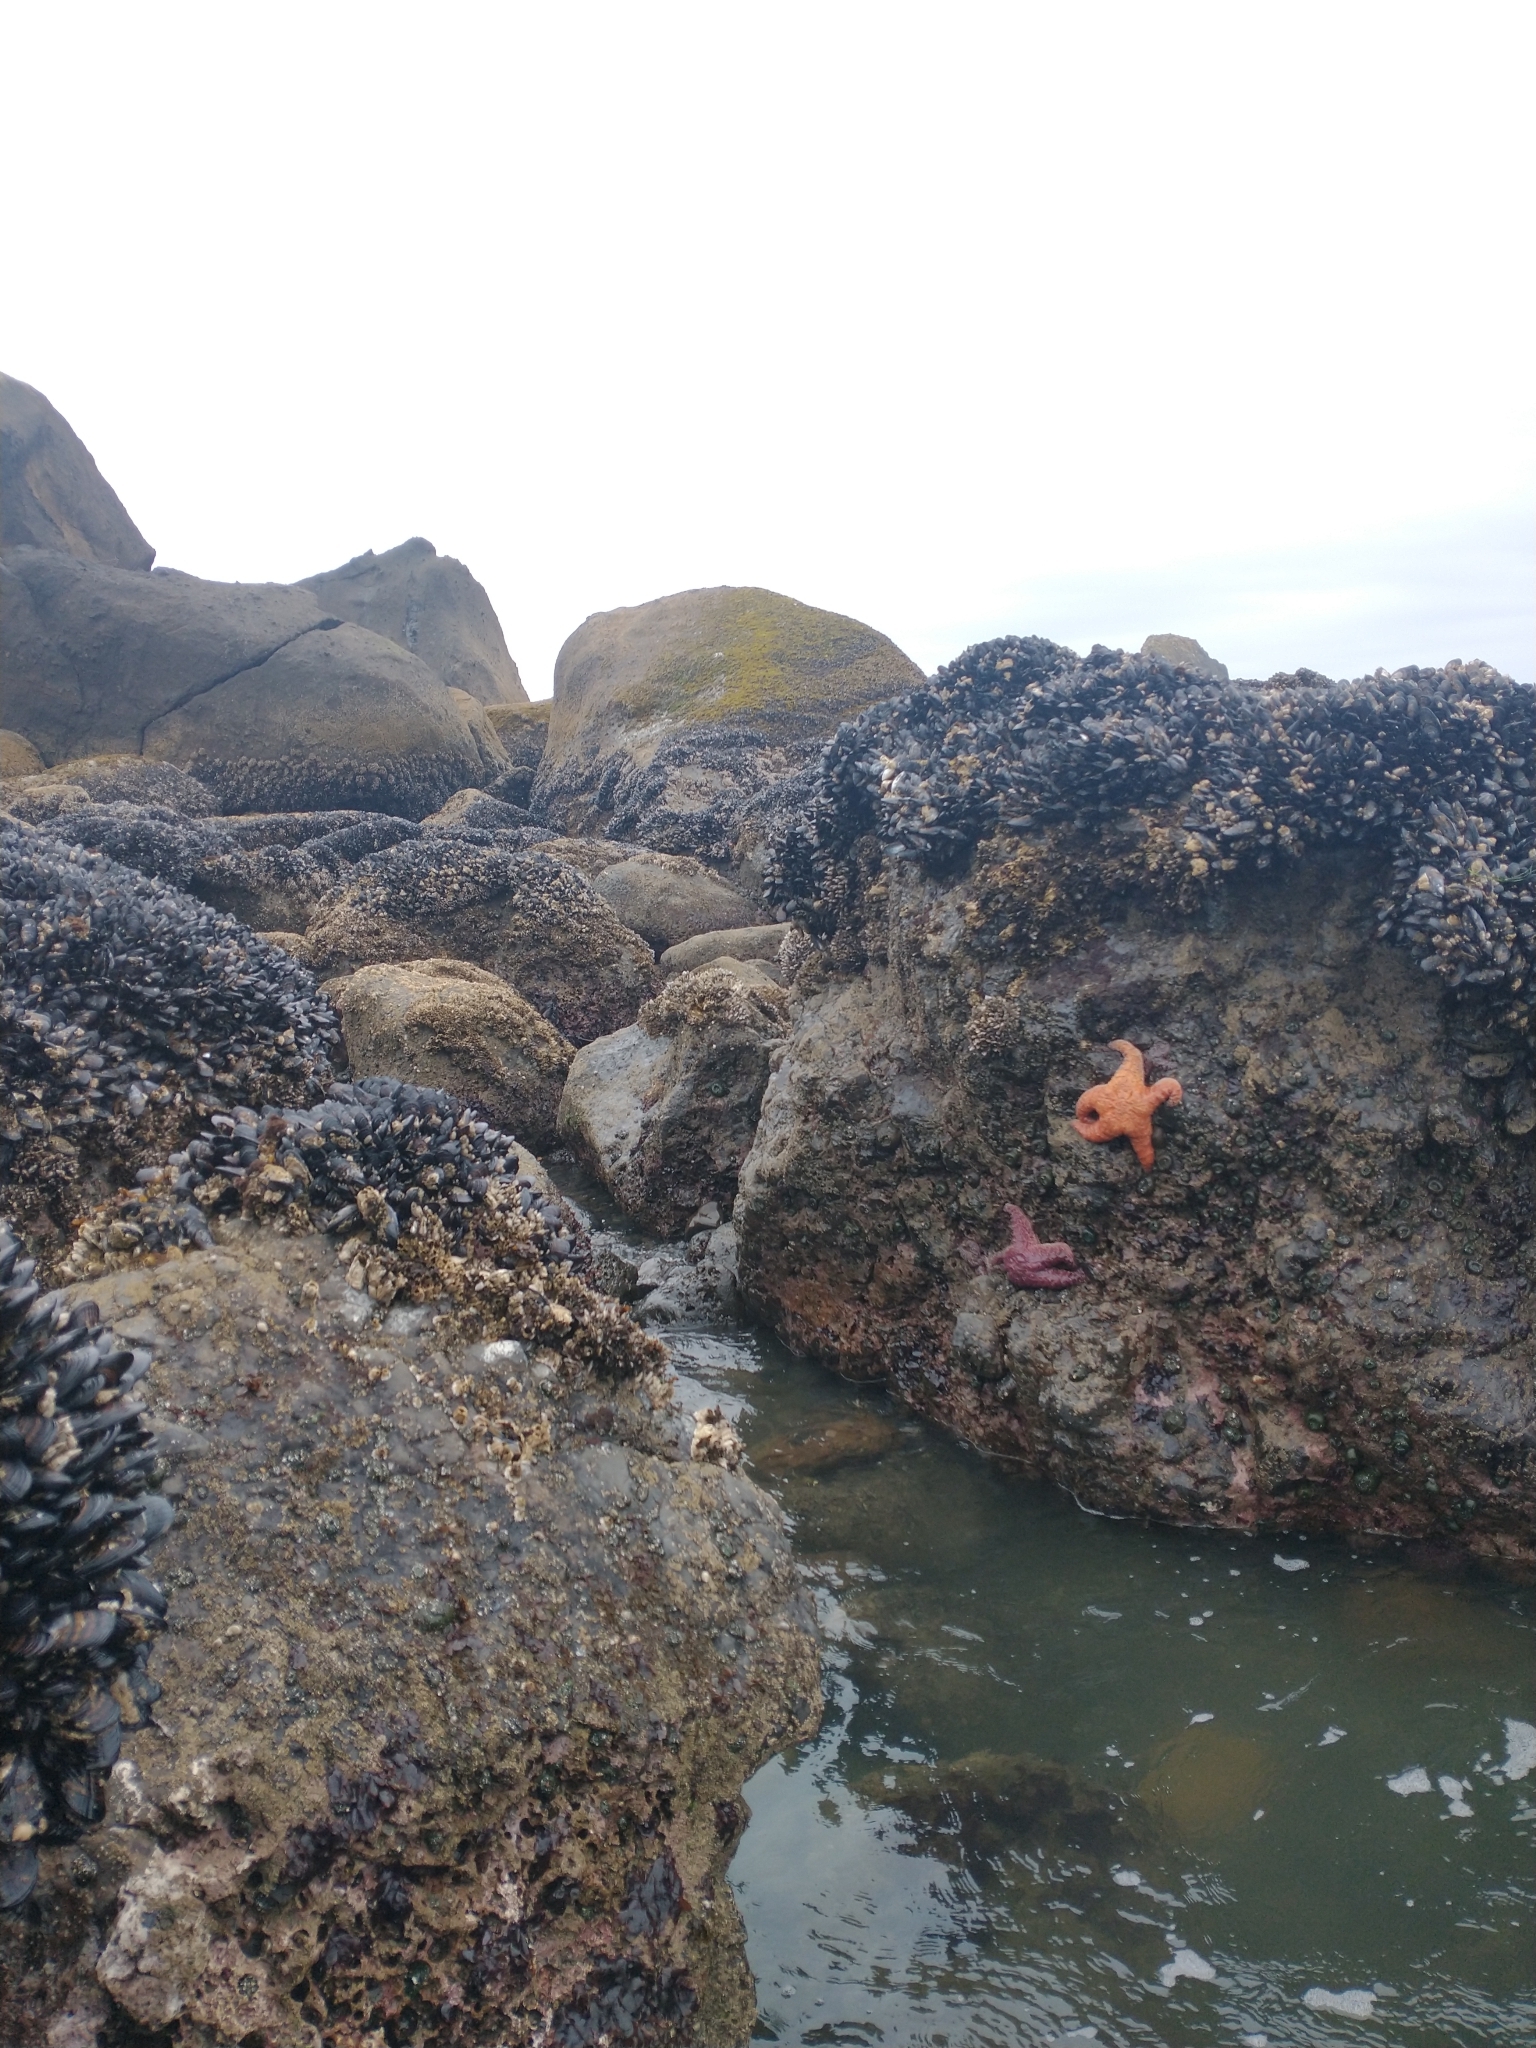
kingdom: Animalia
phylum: Echinodermata
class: Asteroidea
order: Forcipulatida
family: Asteriidae
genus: Pisaster
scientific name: Pisaster ochraceus
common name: Ochre stars
